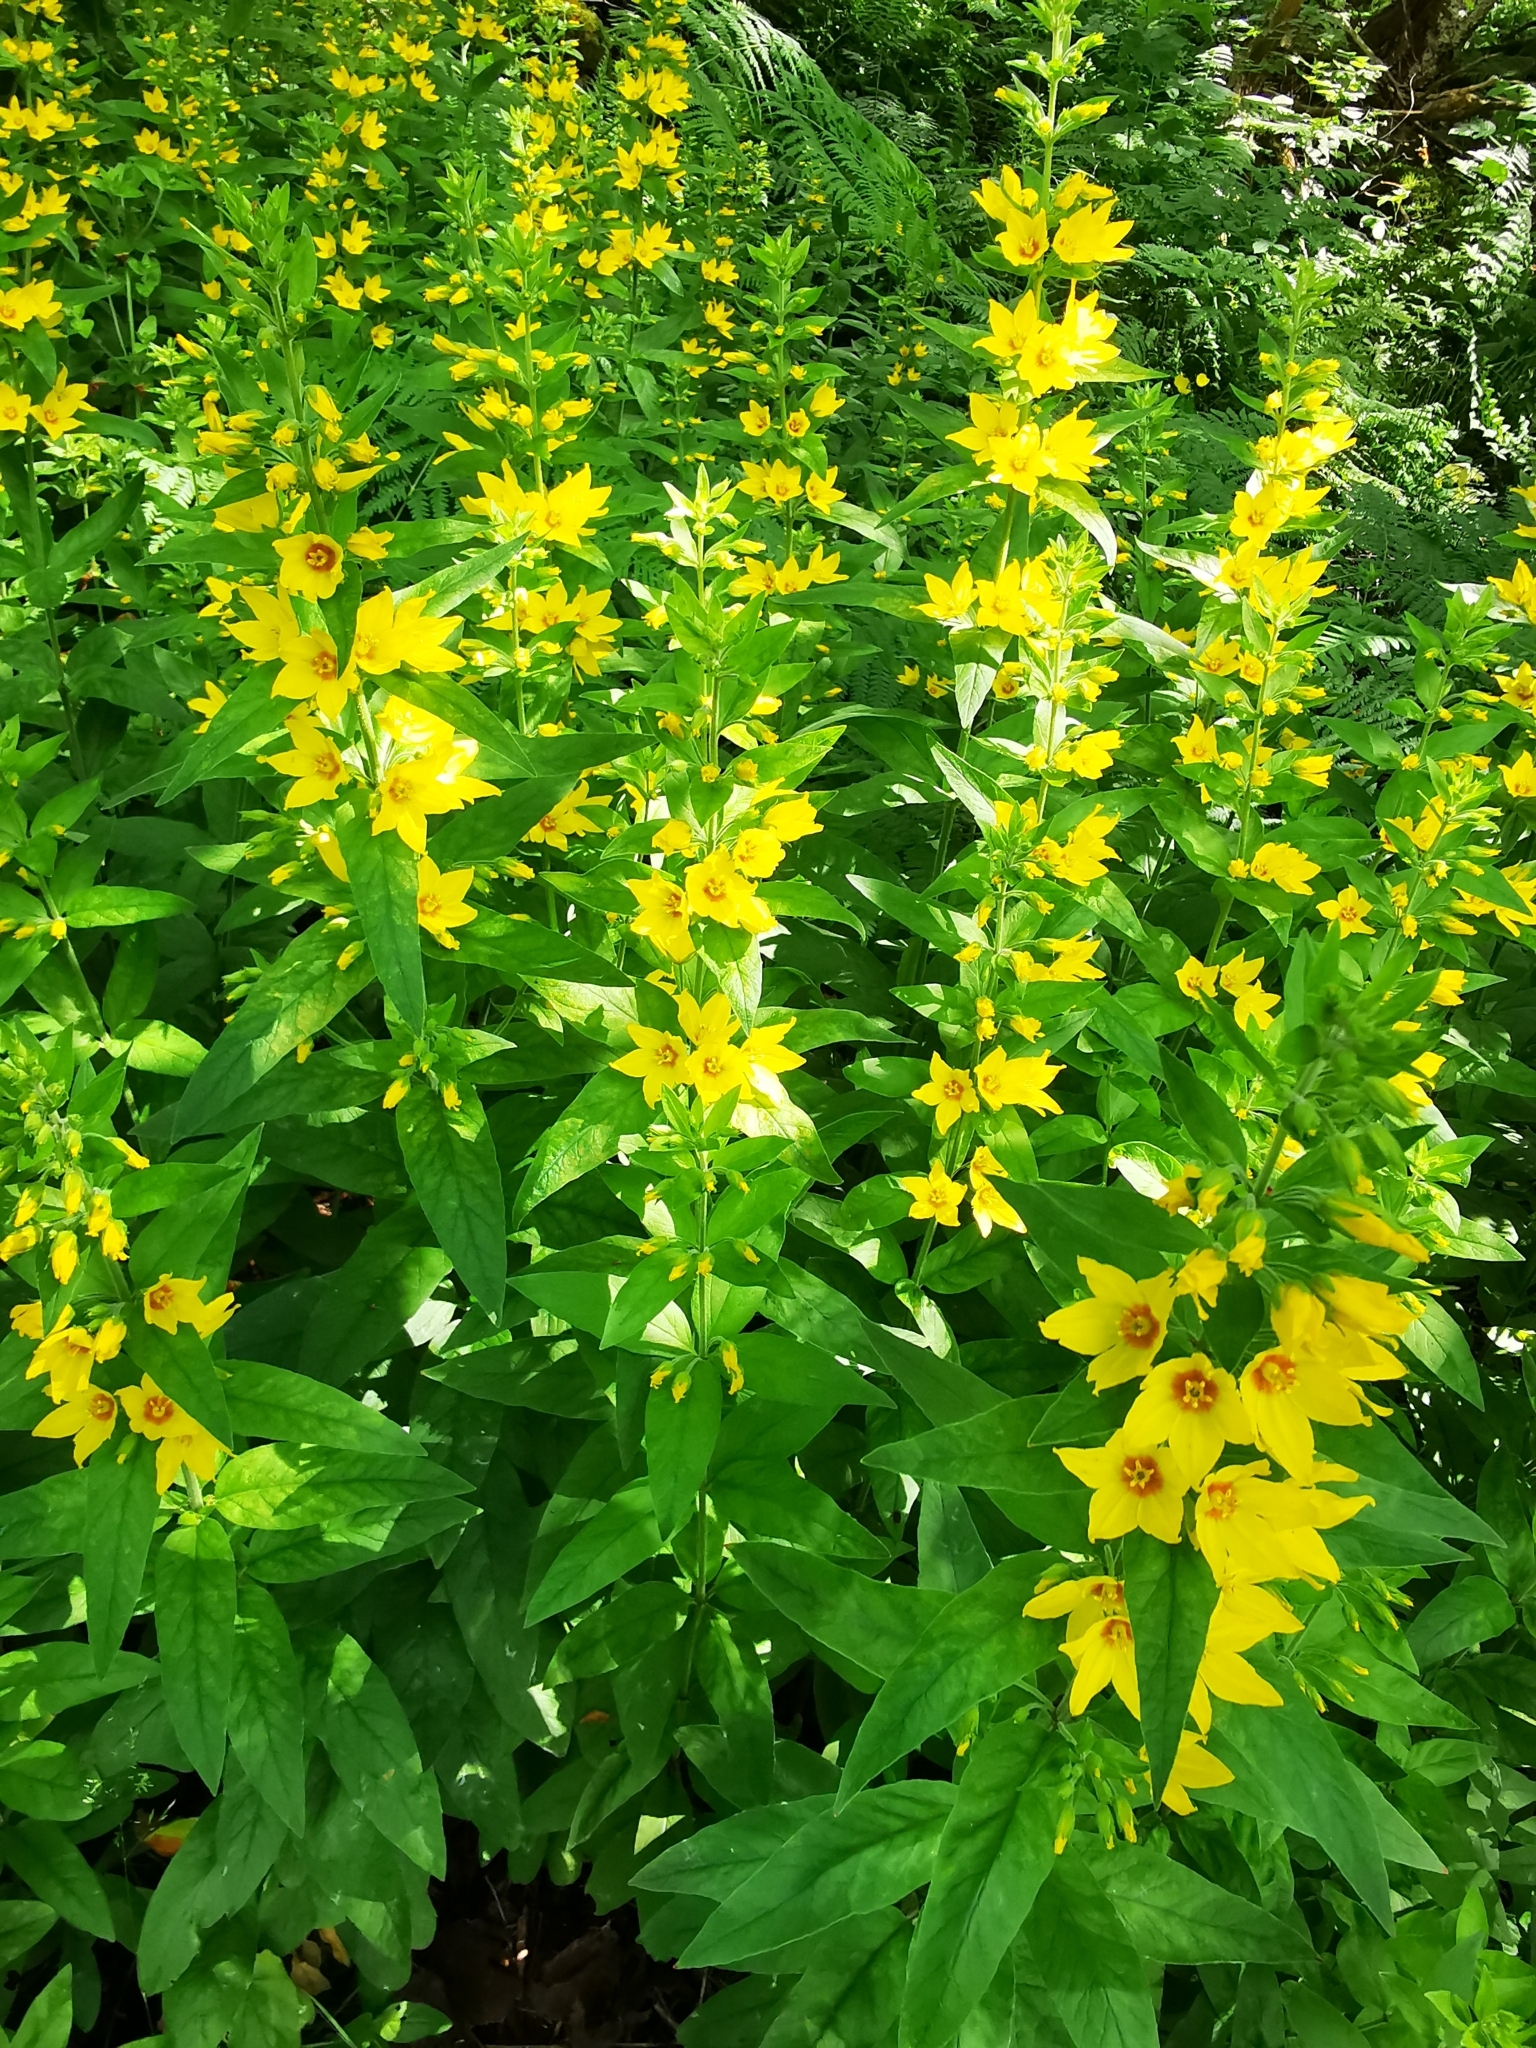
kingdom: Plantae
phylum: Tracheophyta
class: Magnoliopsida
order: Ericales
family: Primulaceae
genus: Lysimachia
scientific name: Lysimachia punctata
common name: Dotted loosestrife
